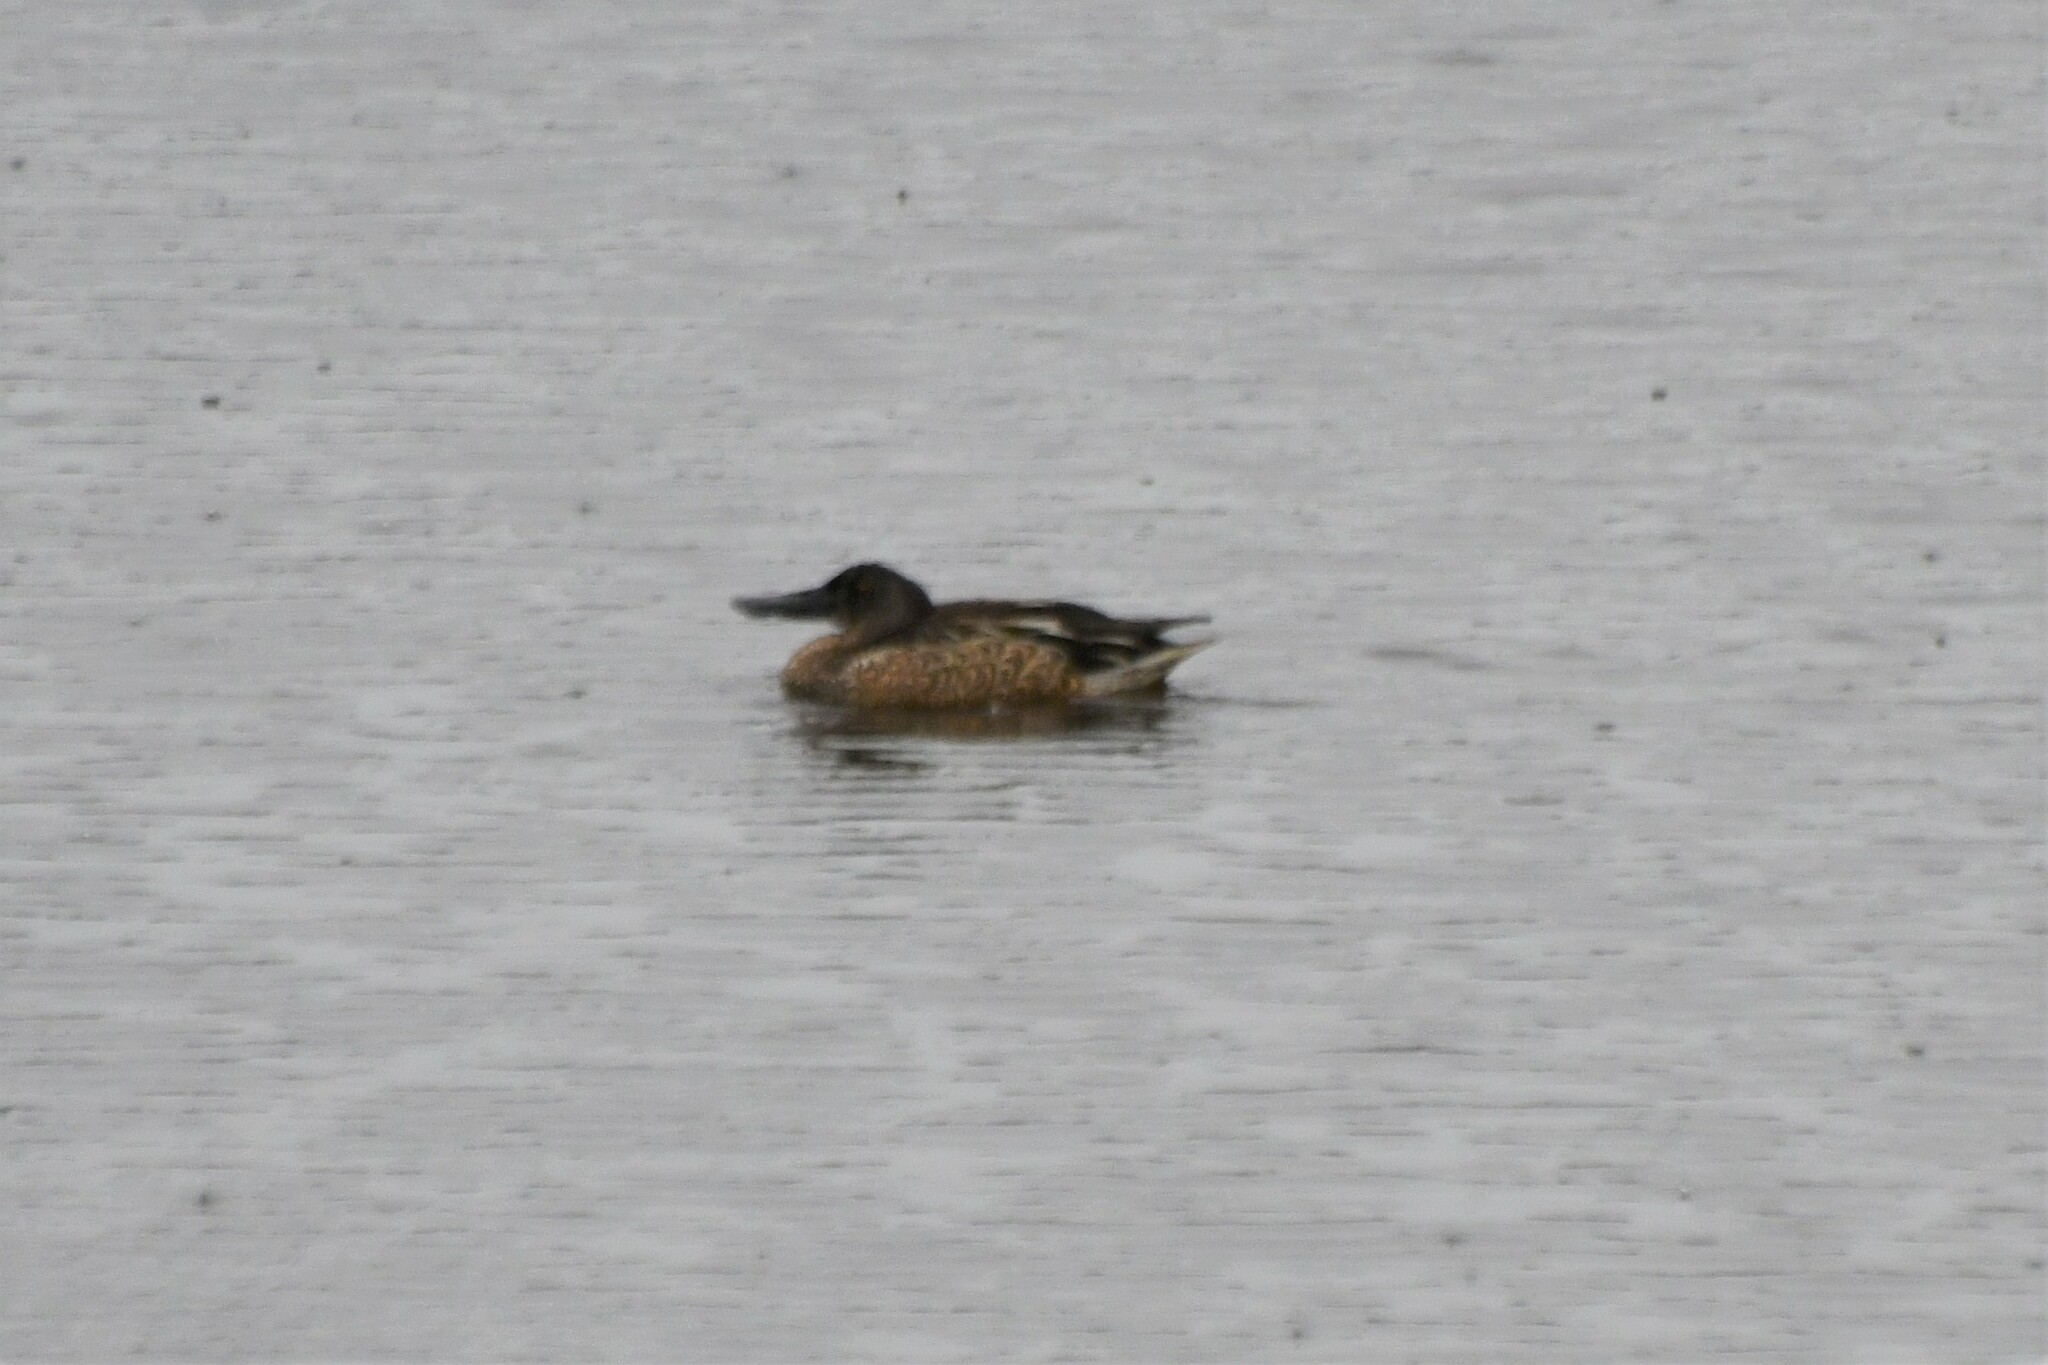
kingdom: Animalia
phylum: Chordata
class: Aves
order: Anseriformes
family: Anatidae
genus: Spatula
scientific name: Spatula clypeata
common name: Northern shoveler
